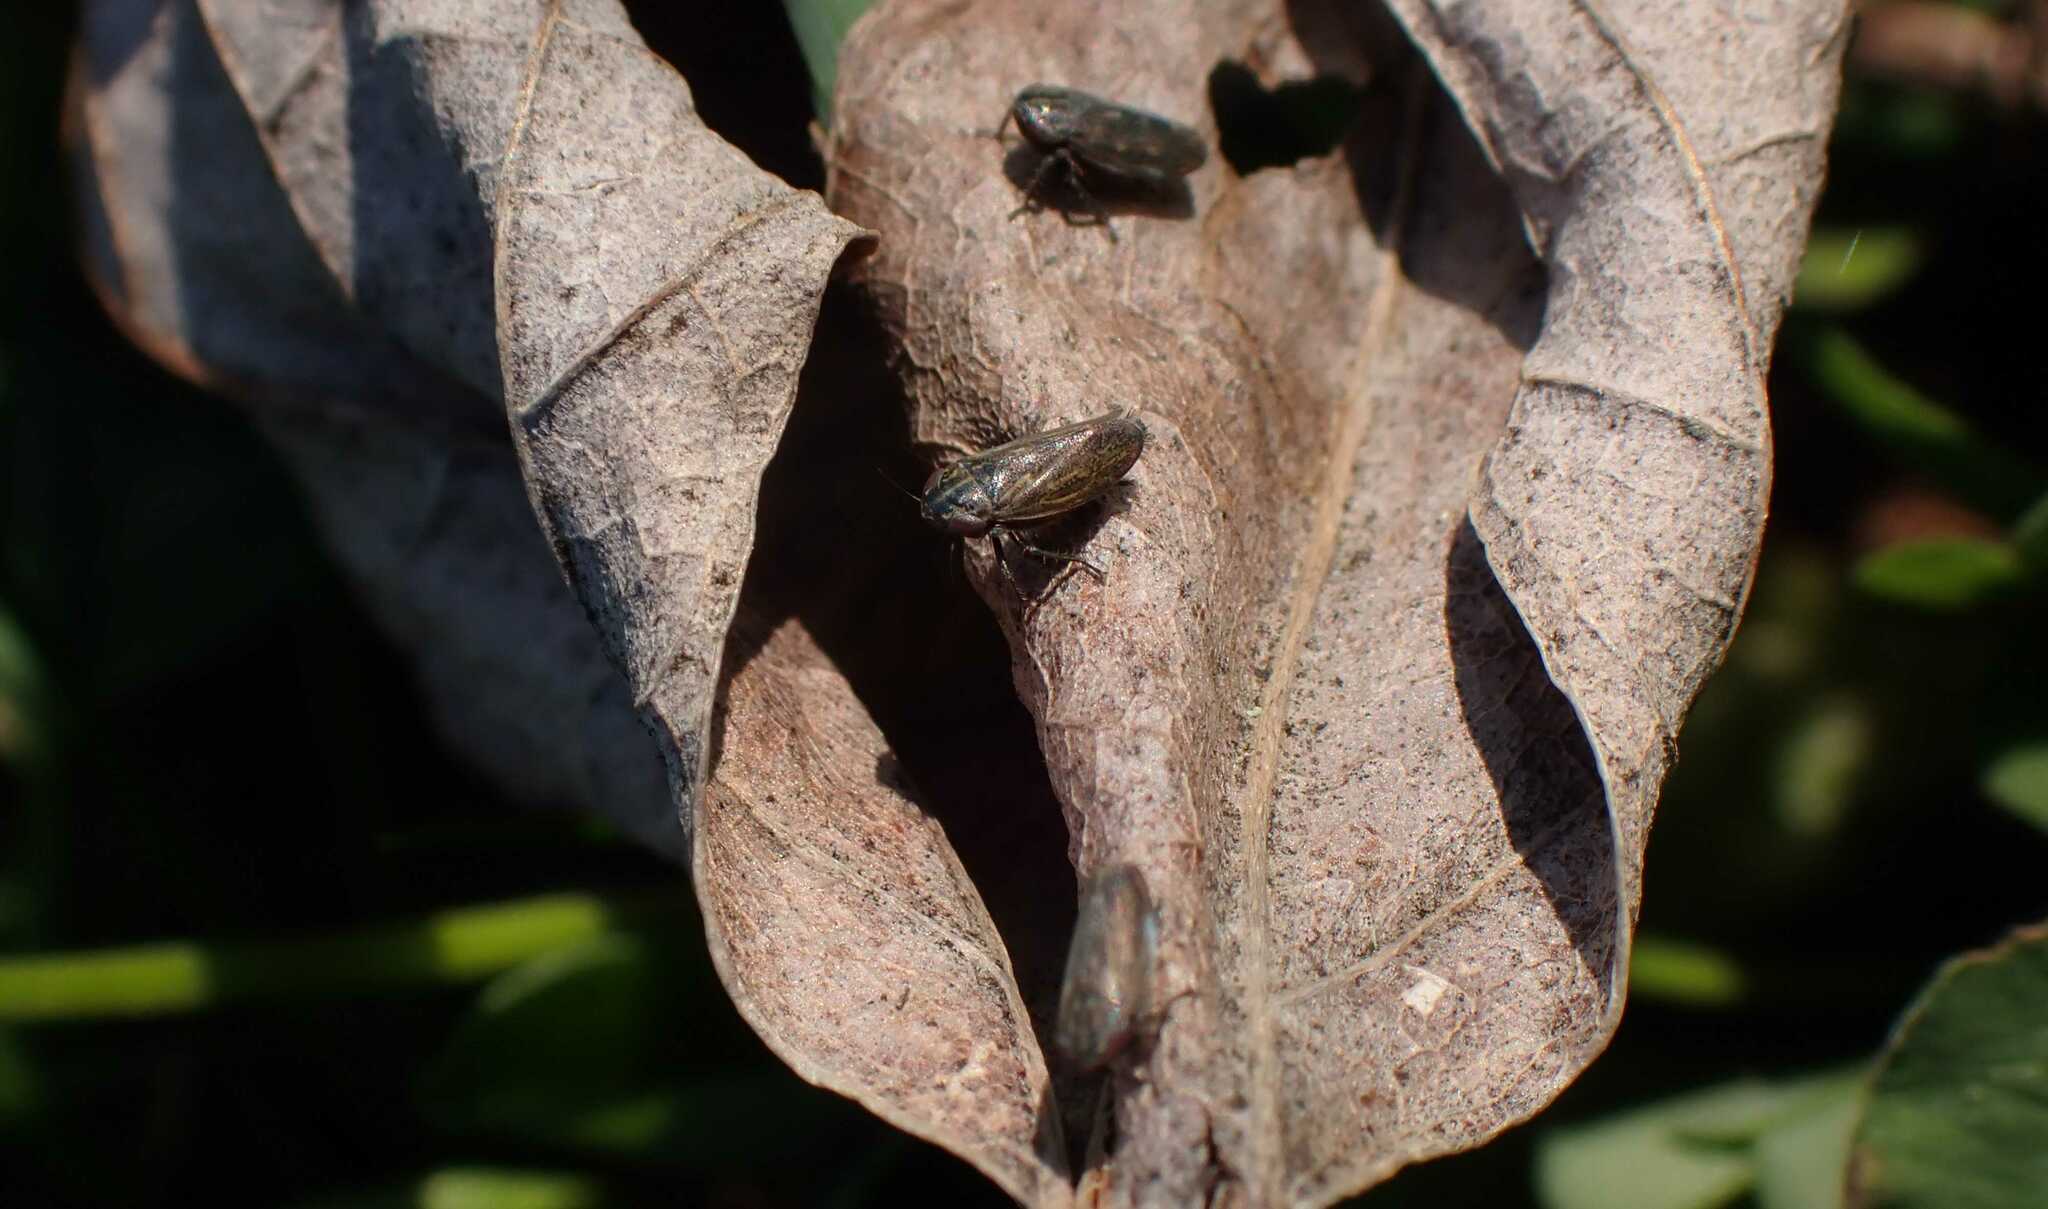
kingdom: Animalia
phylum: Arthropoda
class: Insecta
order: Hemiptera
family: Cicadellidae
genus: Euscelis
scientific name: Euscelis incisa
